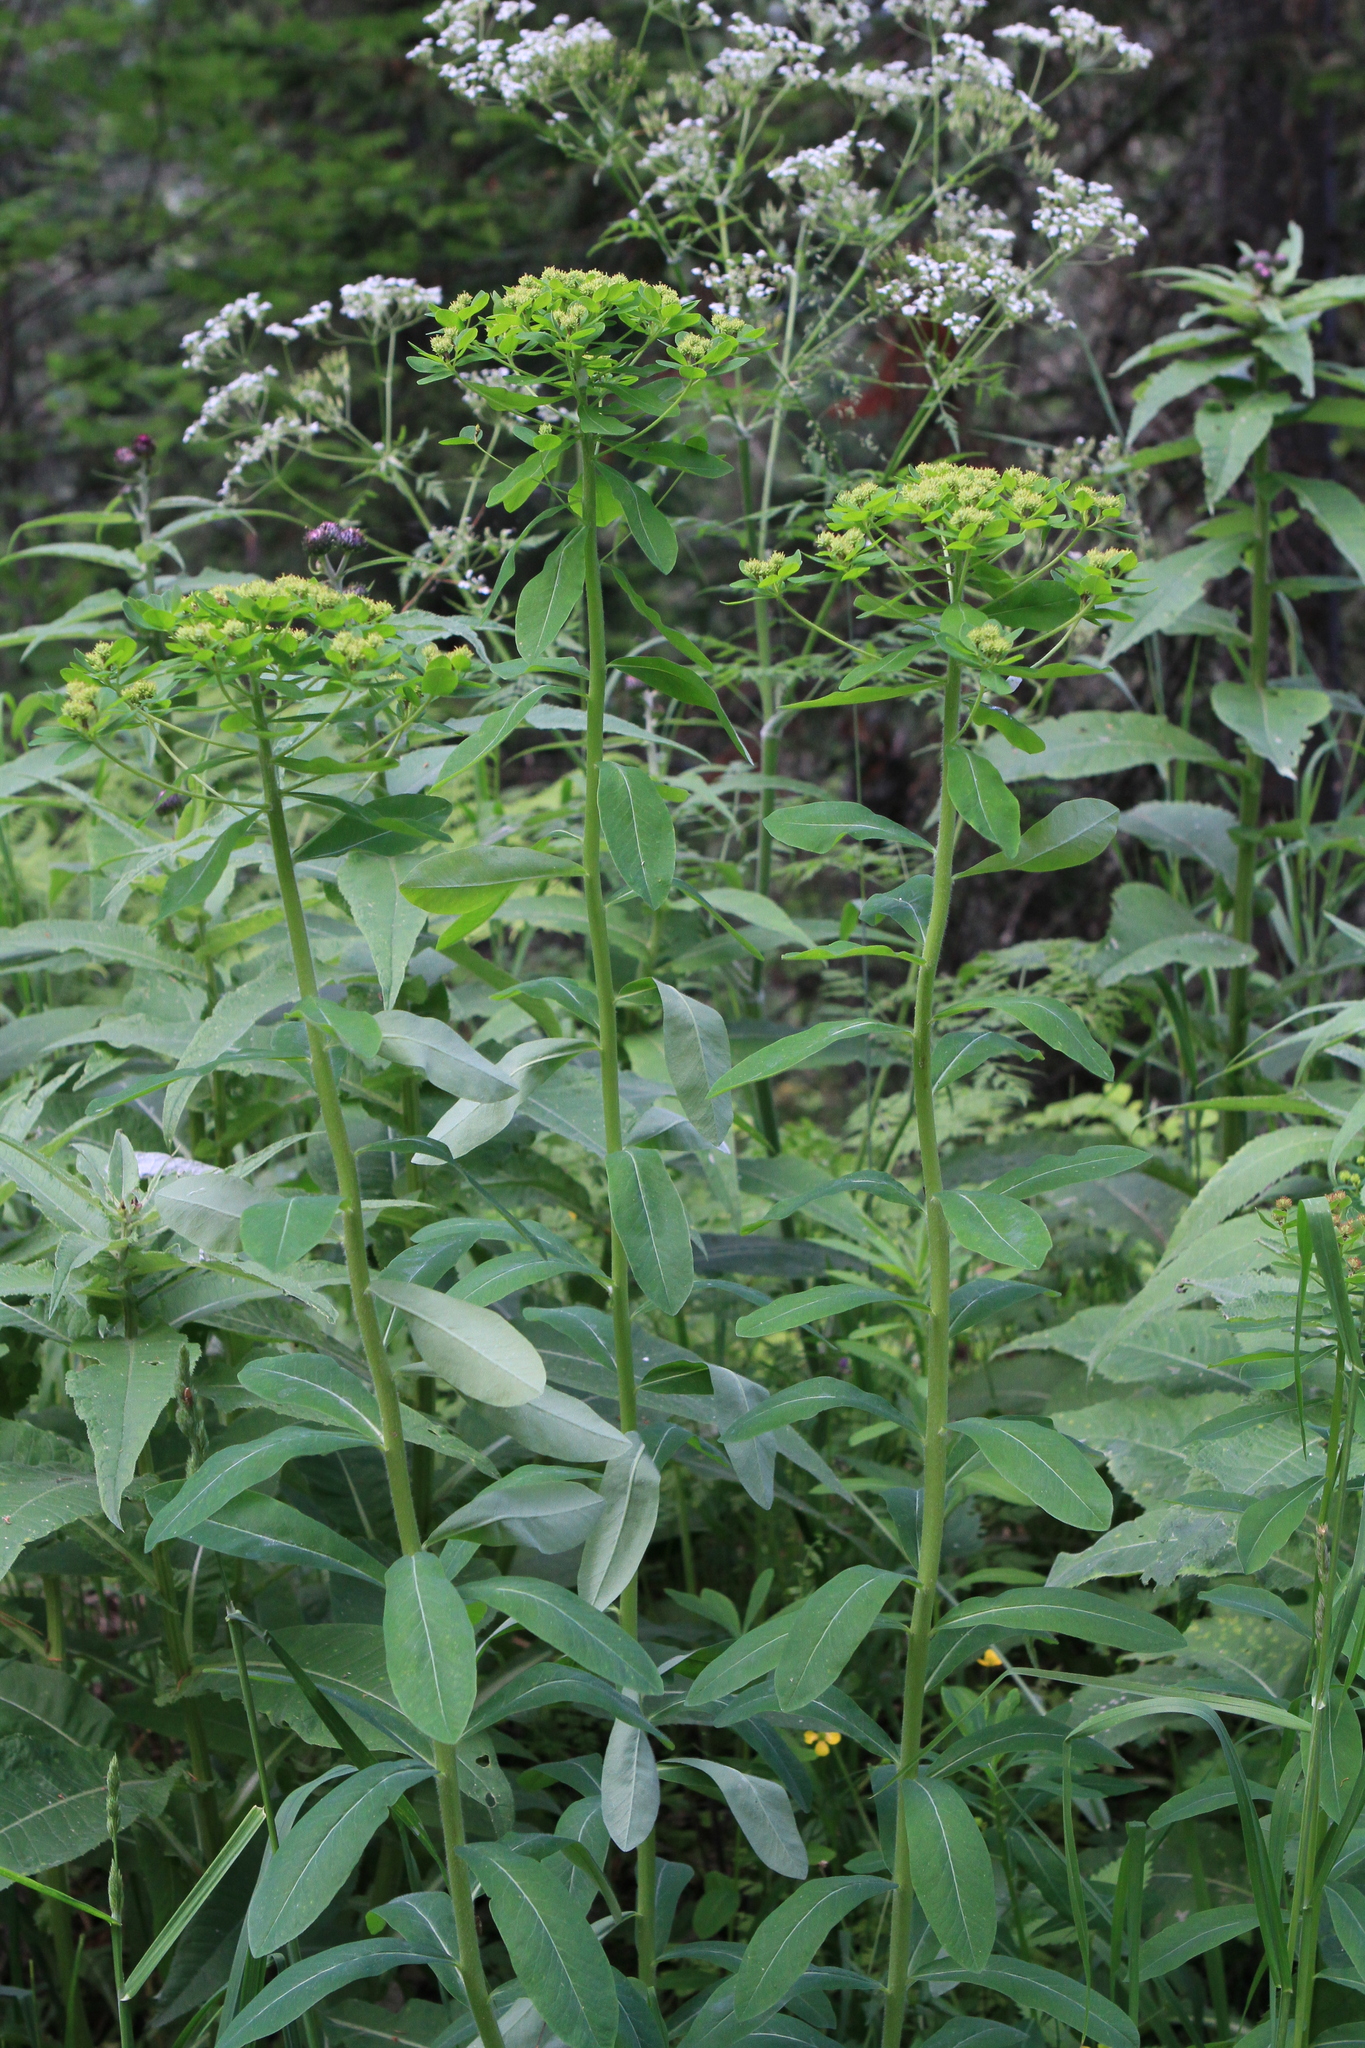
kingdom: Plantae
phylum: Tracheophyta
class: Magnoliopsida
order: Malpighiales
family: Euphorbiaceae
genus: Euphorbia
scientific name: Euphorbia pilosa
